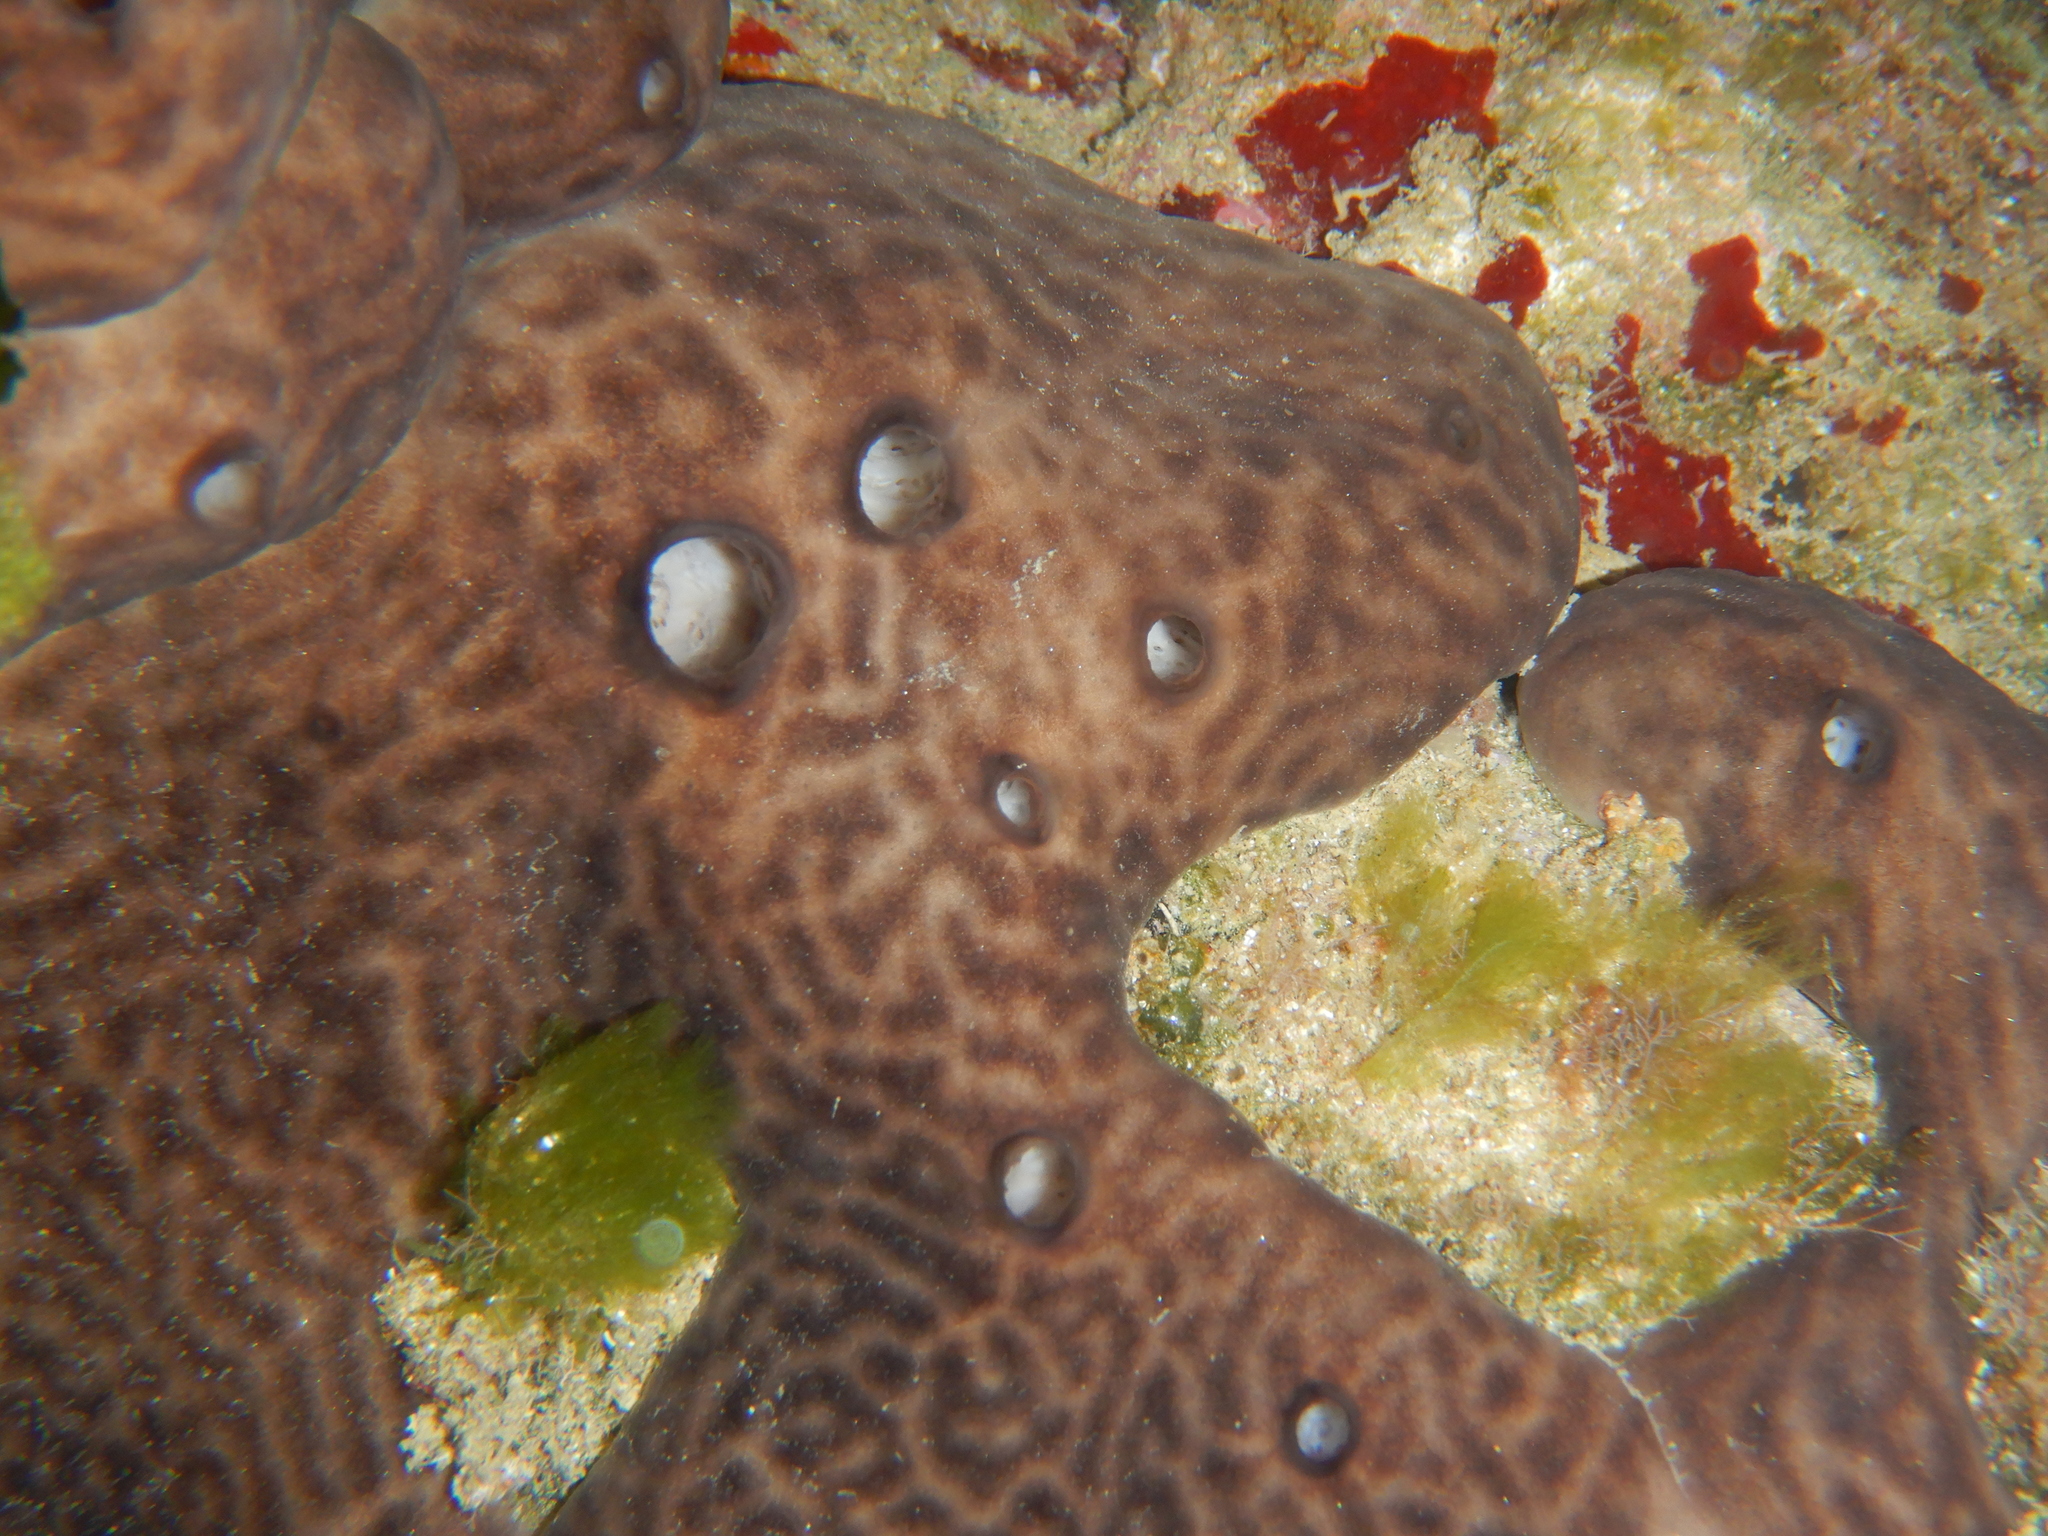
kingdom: Animalia
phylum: Porifera
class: Demospongiae
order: Chondrosiida
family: Chondrosiidae
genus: Chondrosia
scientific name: Chondrosia reniformis
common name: Chicken liver sponge
